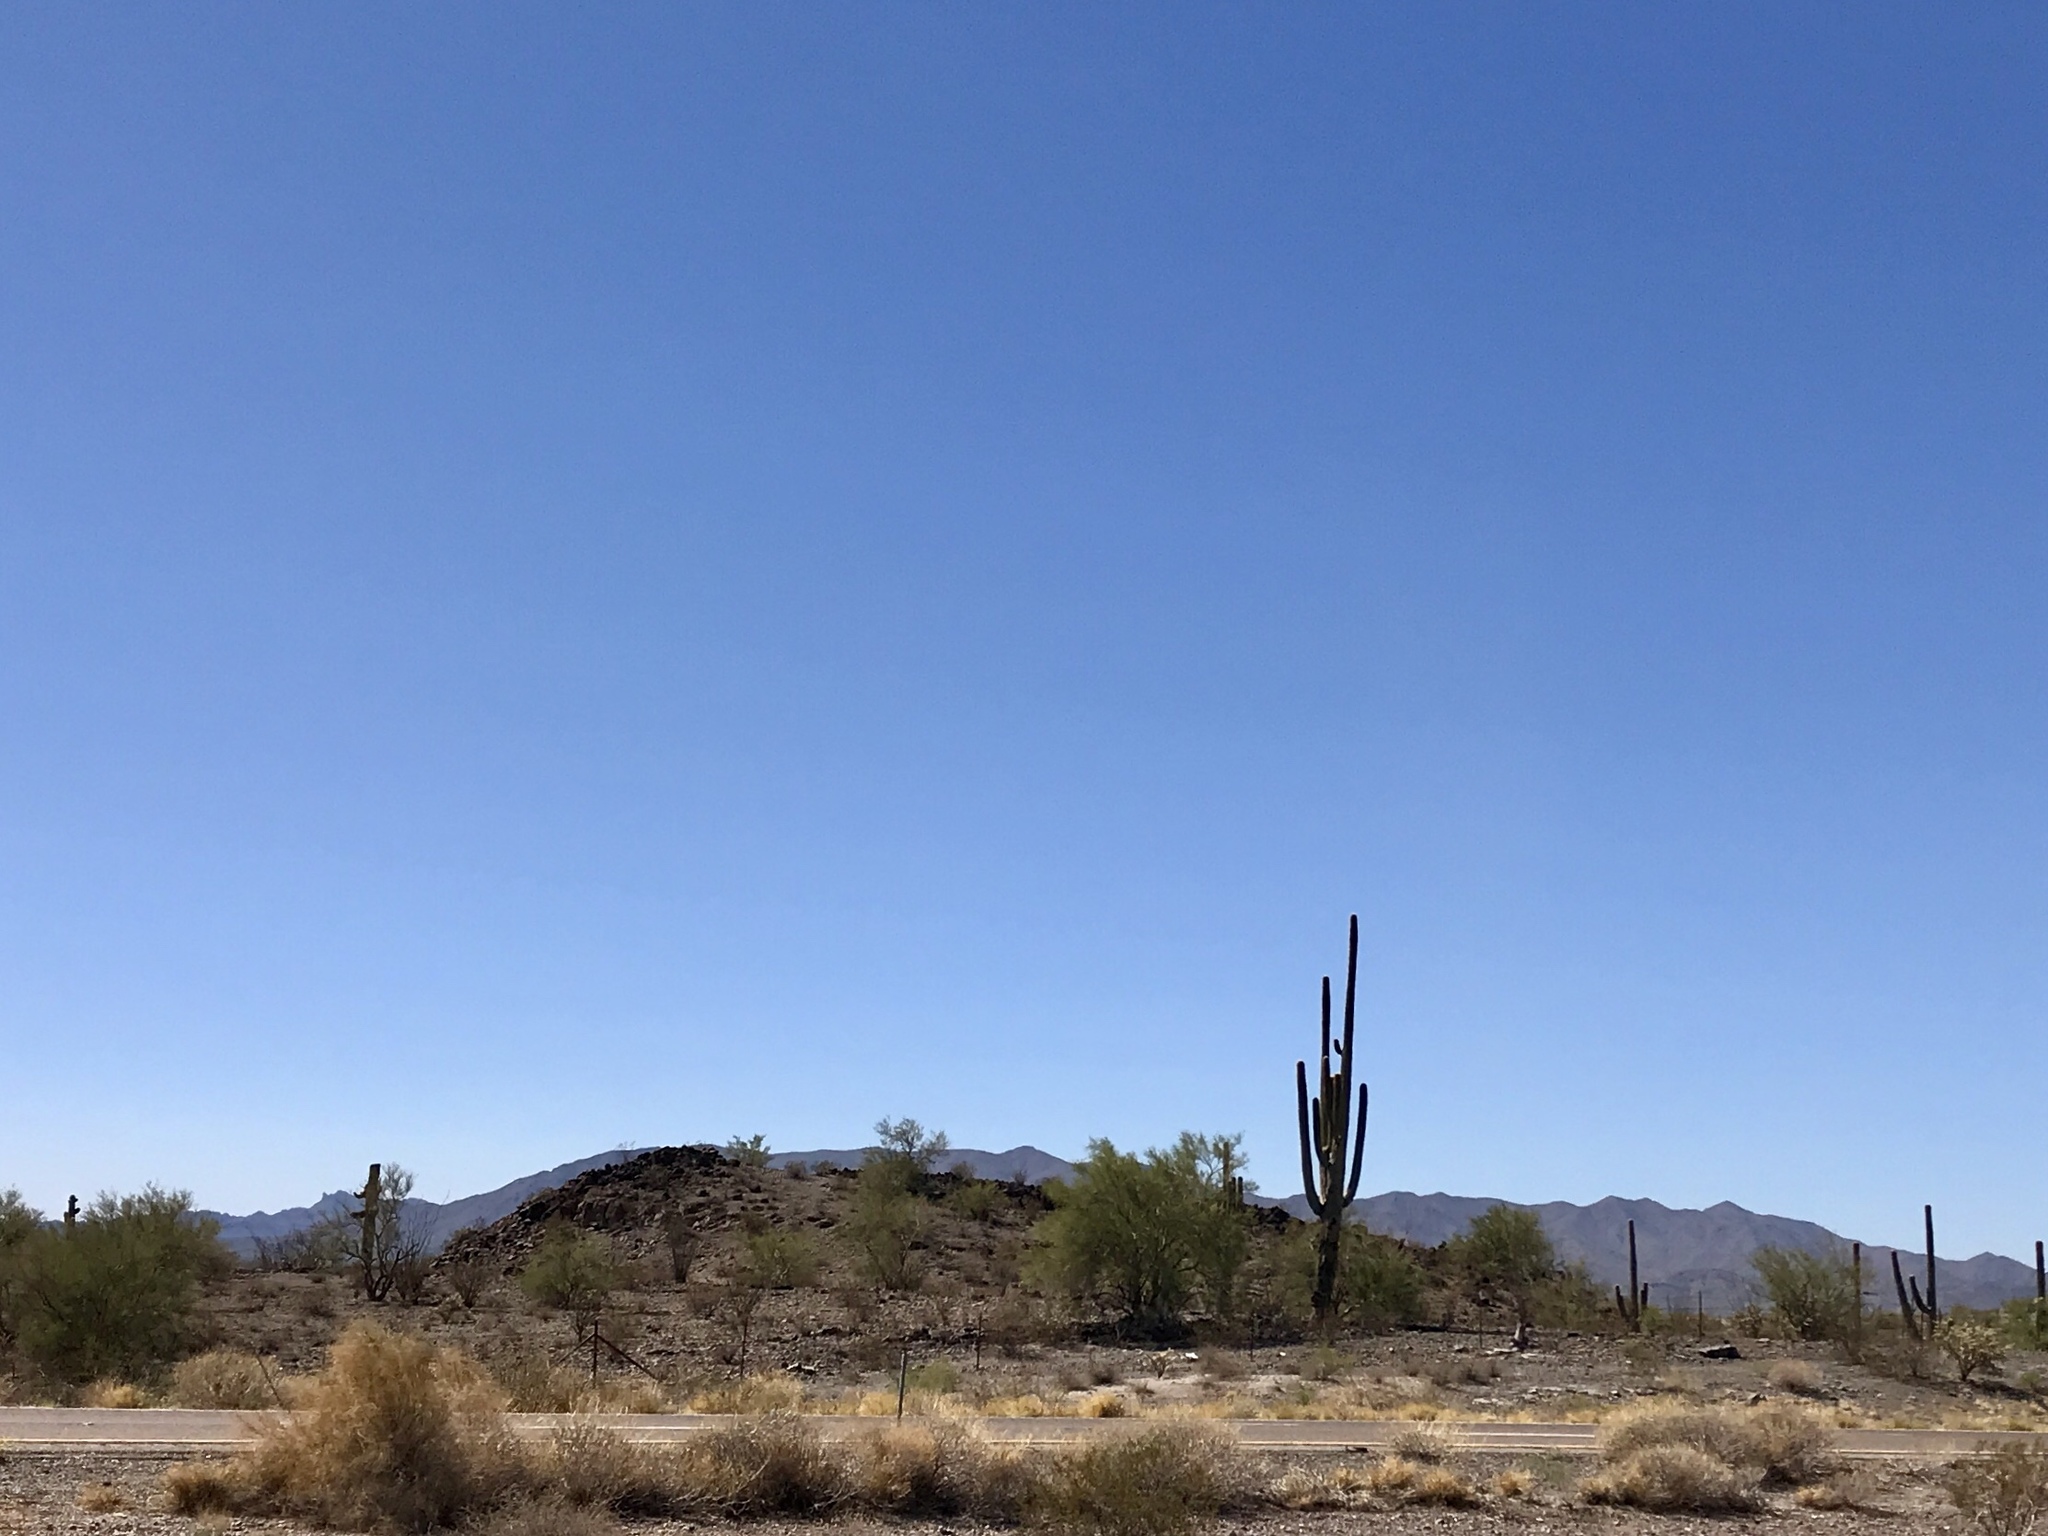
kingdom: Plantae
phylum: Tracheophyta
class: Magnoliopsida
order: Caryophyllales
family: Cactaceae
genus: Carnegiea
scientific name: Carnegiea gigantea
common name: Saguaro
